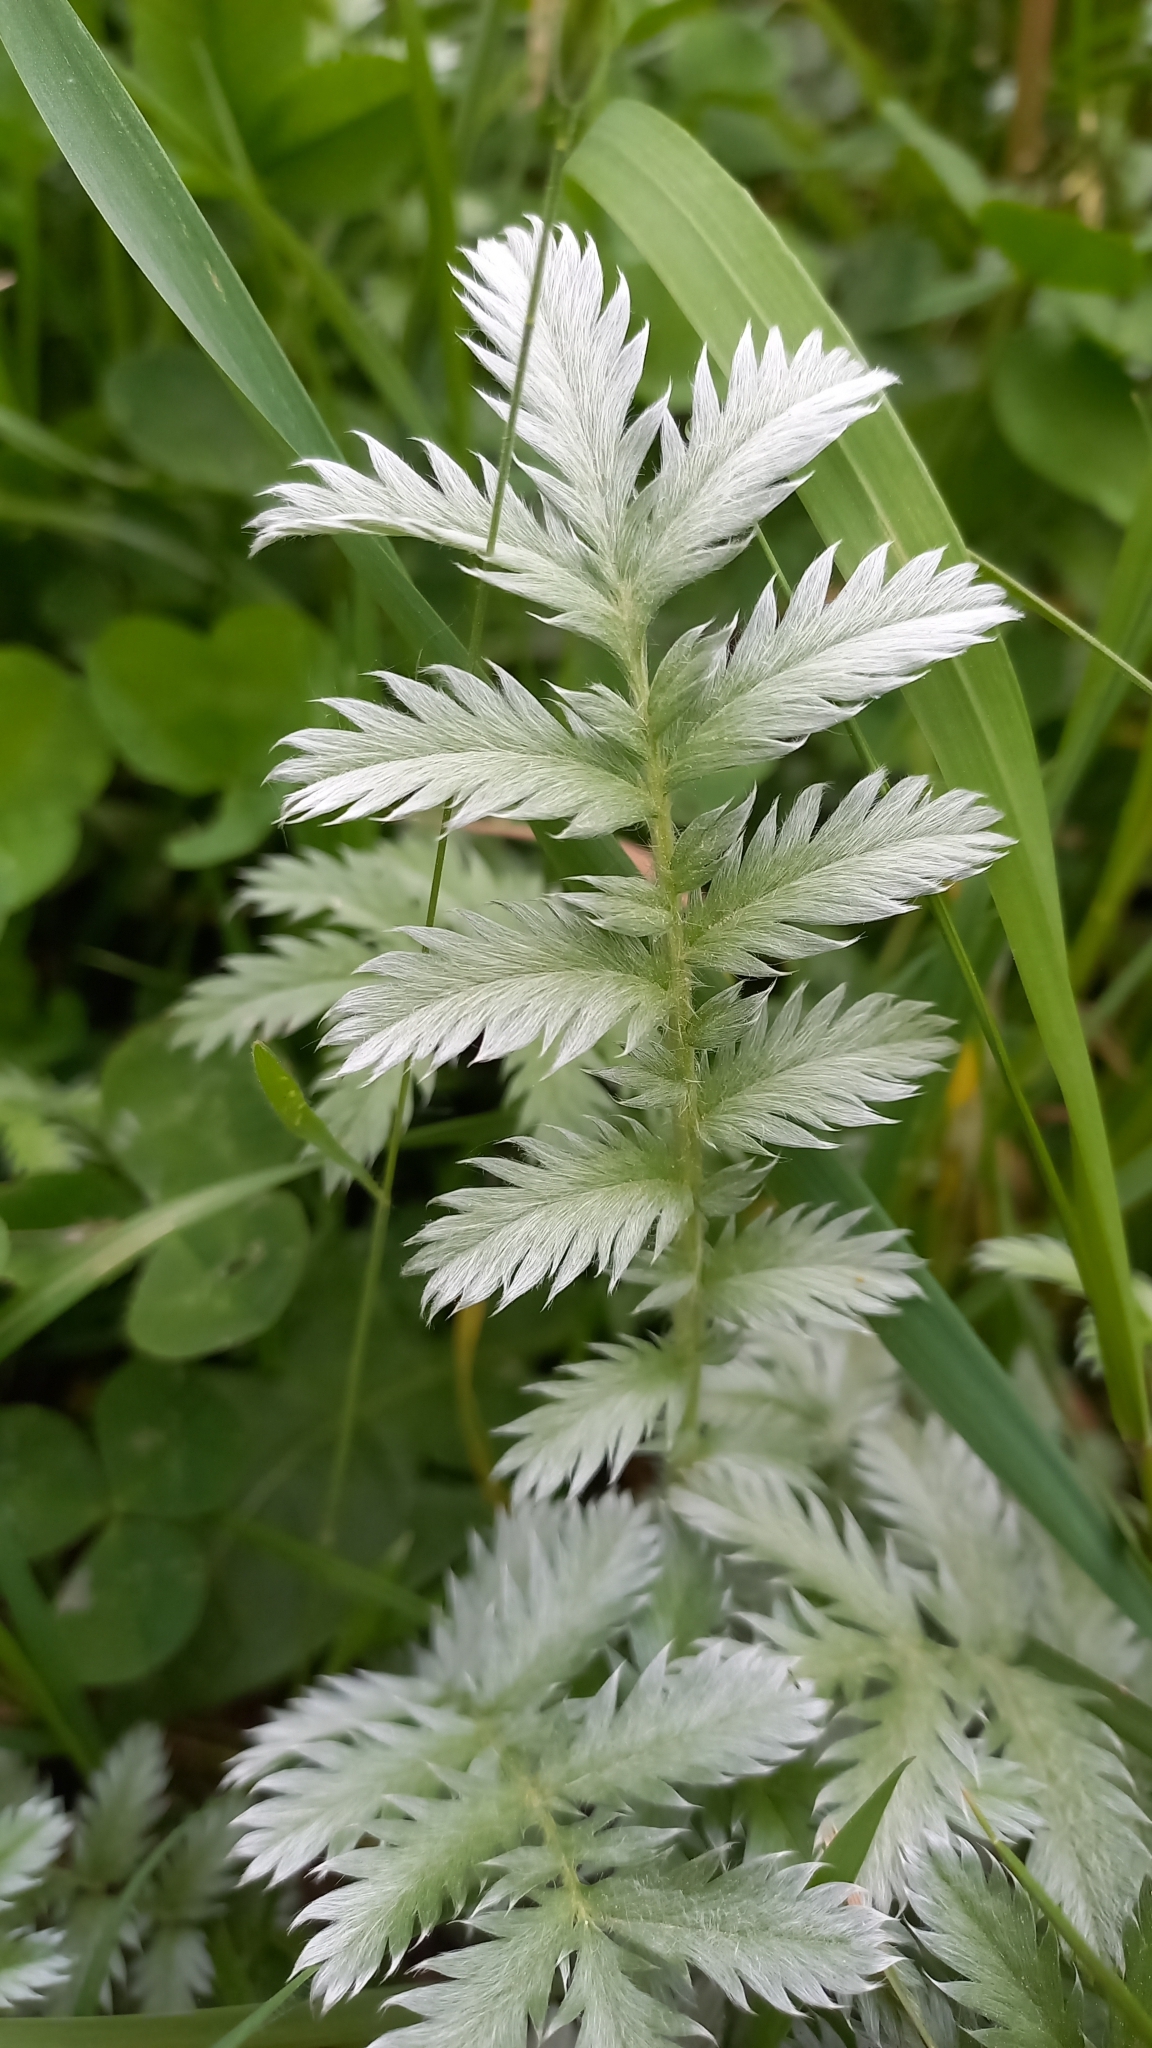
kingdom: Plantae
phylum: Tracheophyta
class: Magnoliopsida
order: Rosales
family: Rosaceae
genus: Argentina
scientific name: Argentina anserina
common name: Common silverweed
